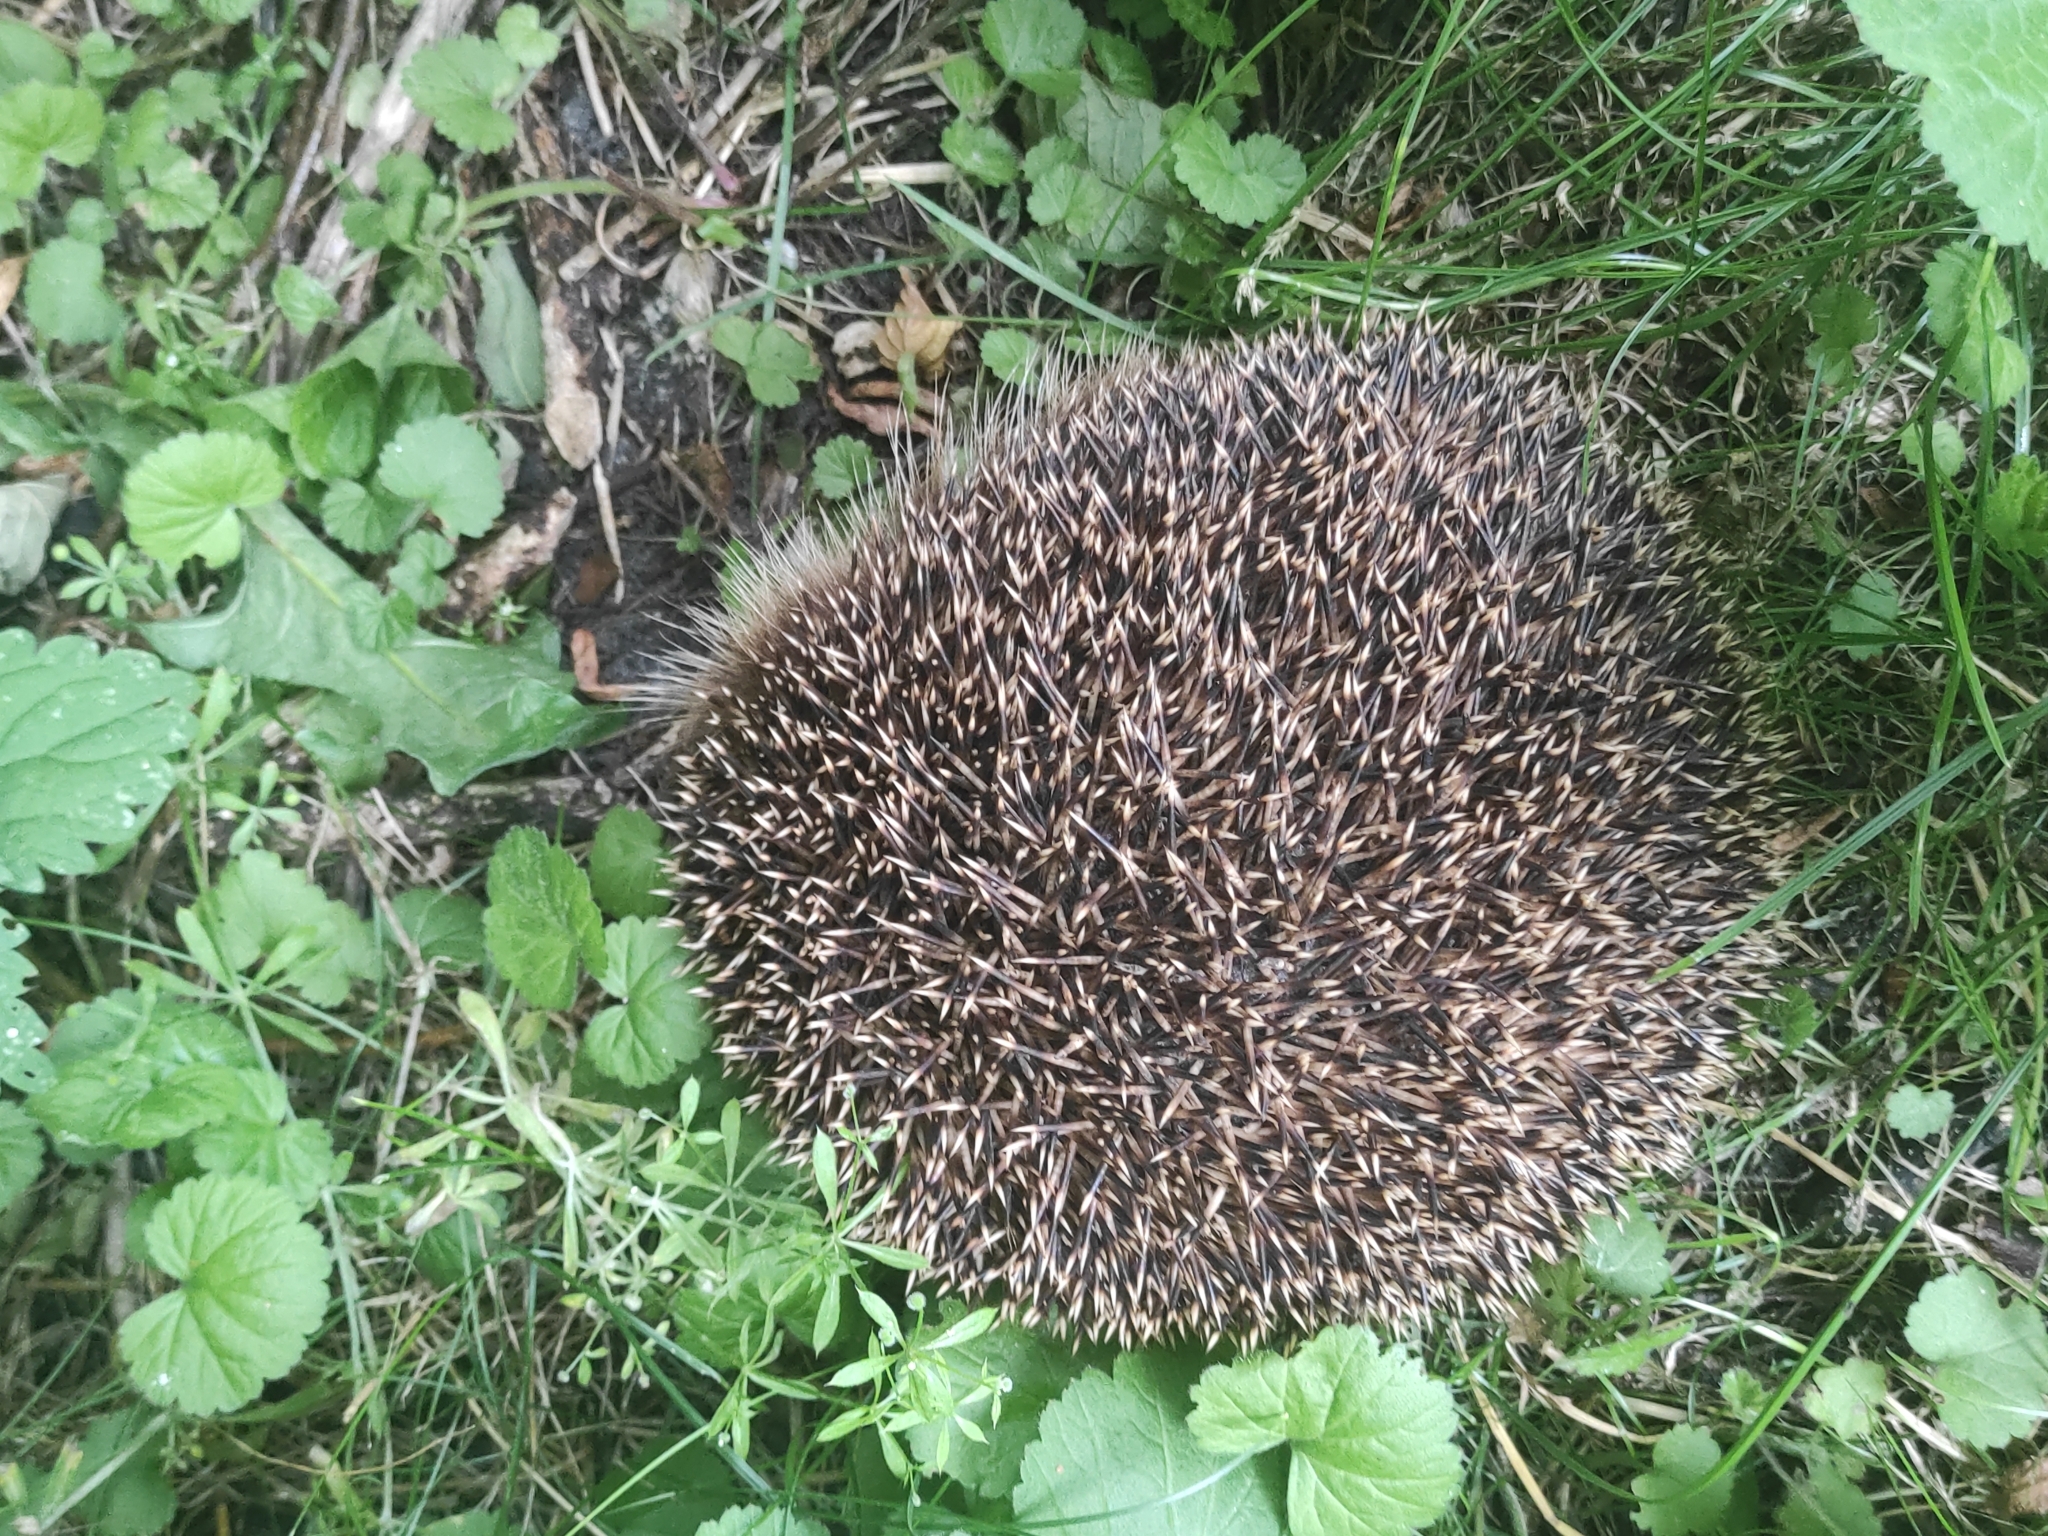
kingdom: Animalia
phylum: Chordata
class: Mammalia
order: Erinaceomorpha
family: Erinaceidae
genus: Erinaceus
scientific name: Erinaceus europaeus
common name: West european hedgehog
